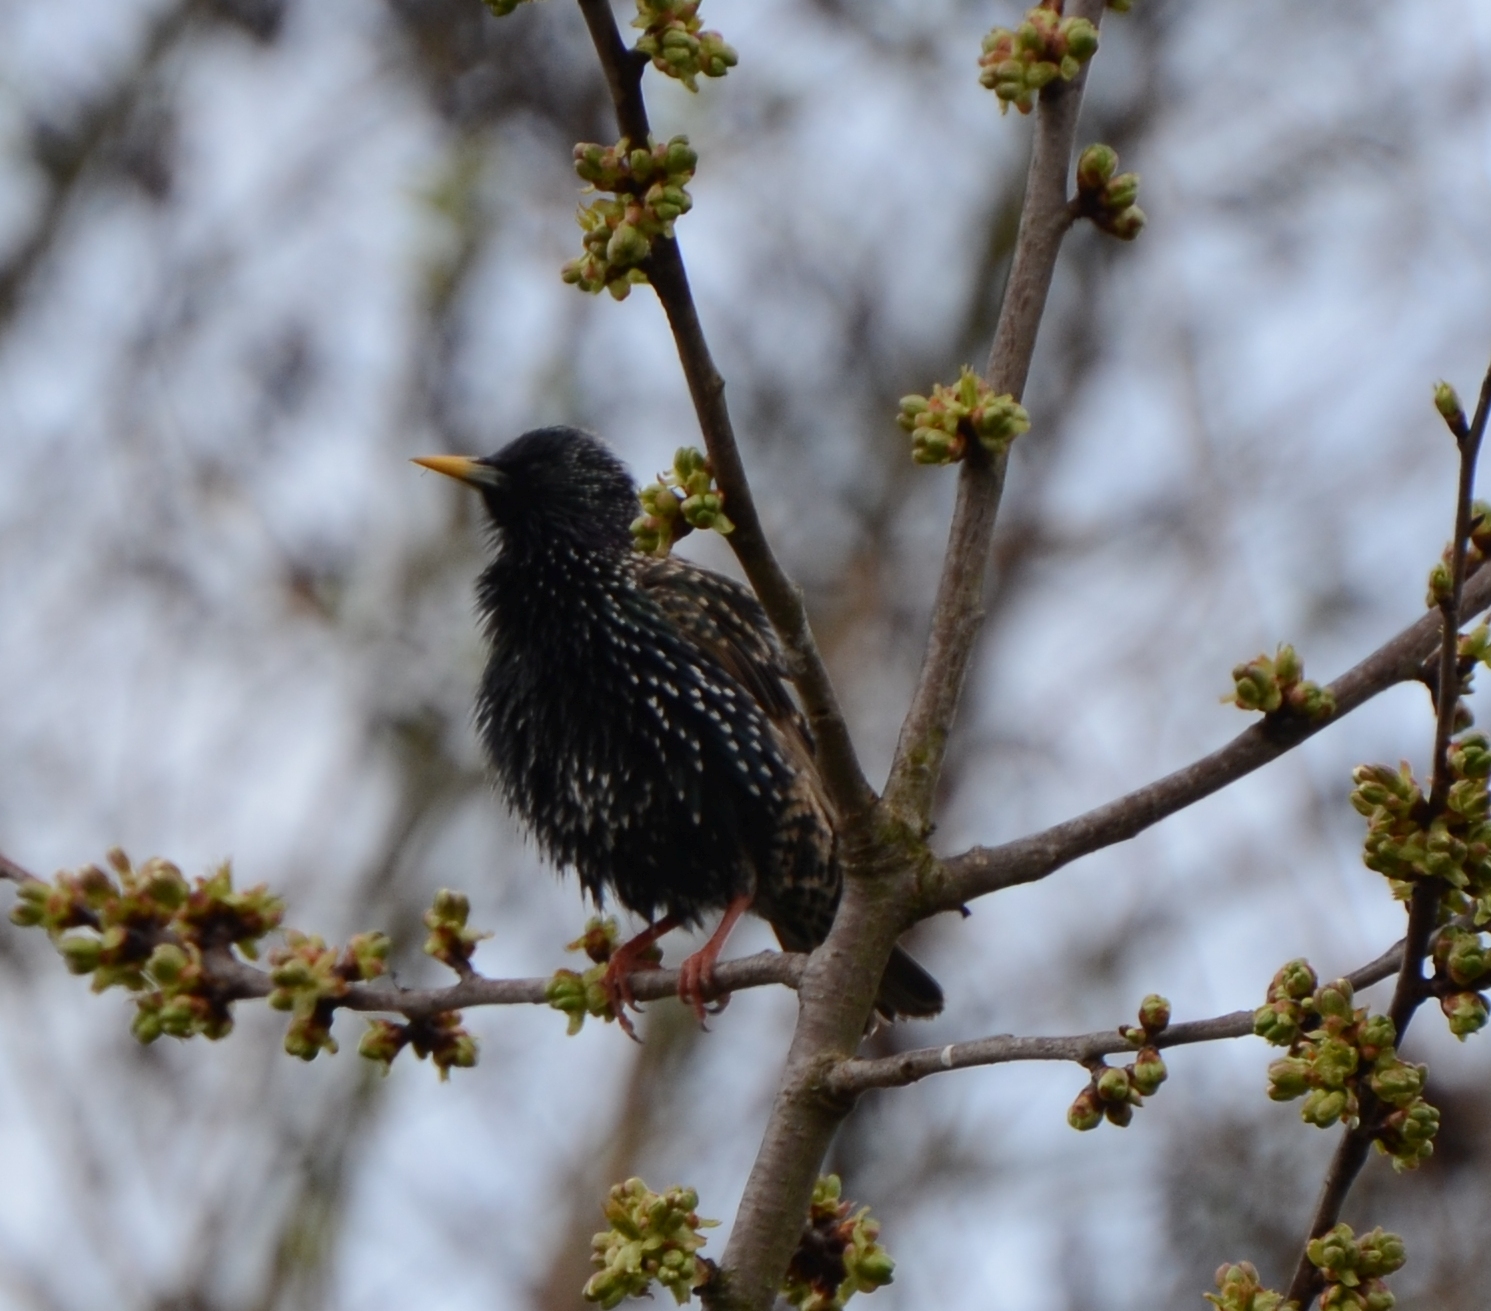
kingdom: Animalia
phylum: Chordata
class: Aves
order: Passeriformes
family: Sturnidae
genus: Sturnus
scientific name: Sturnus vulgaris
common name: Common starling
